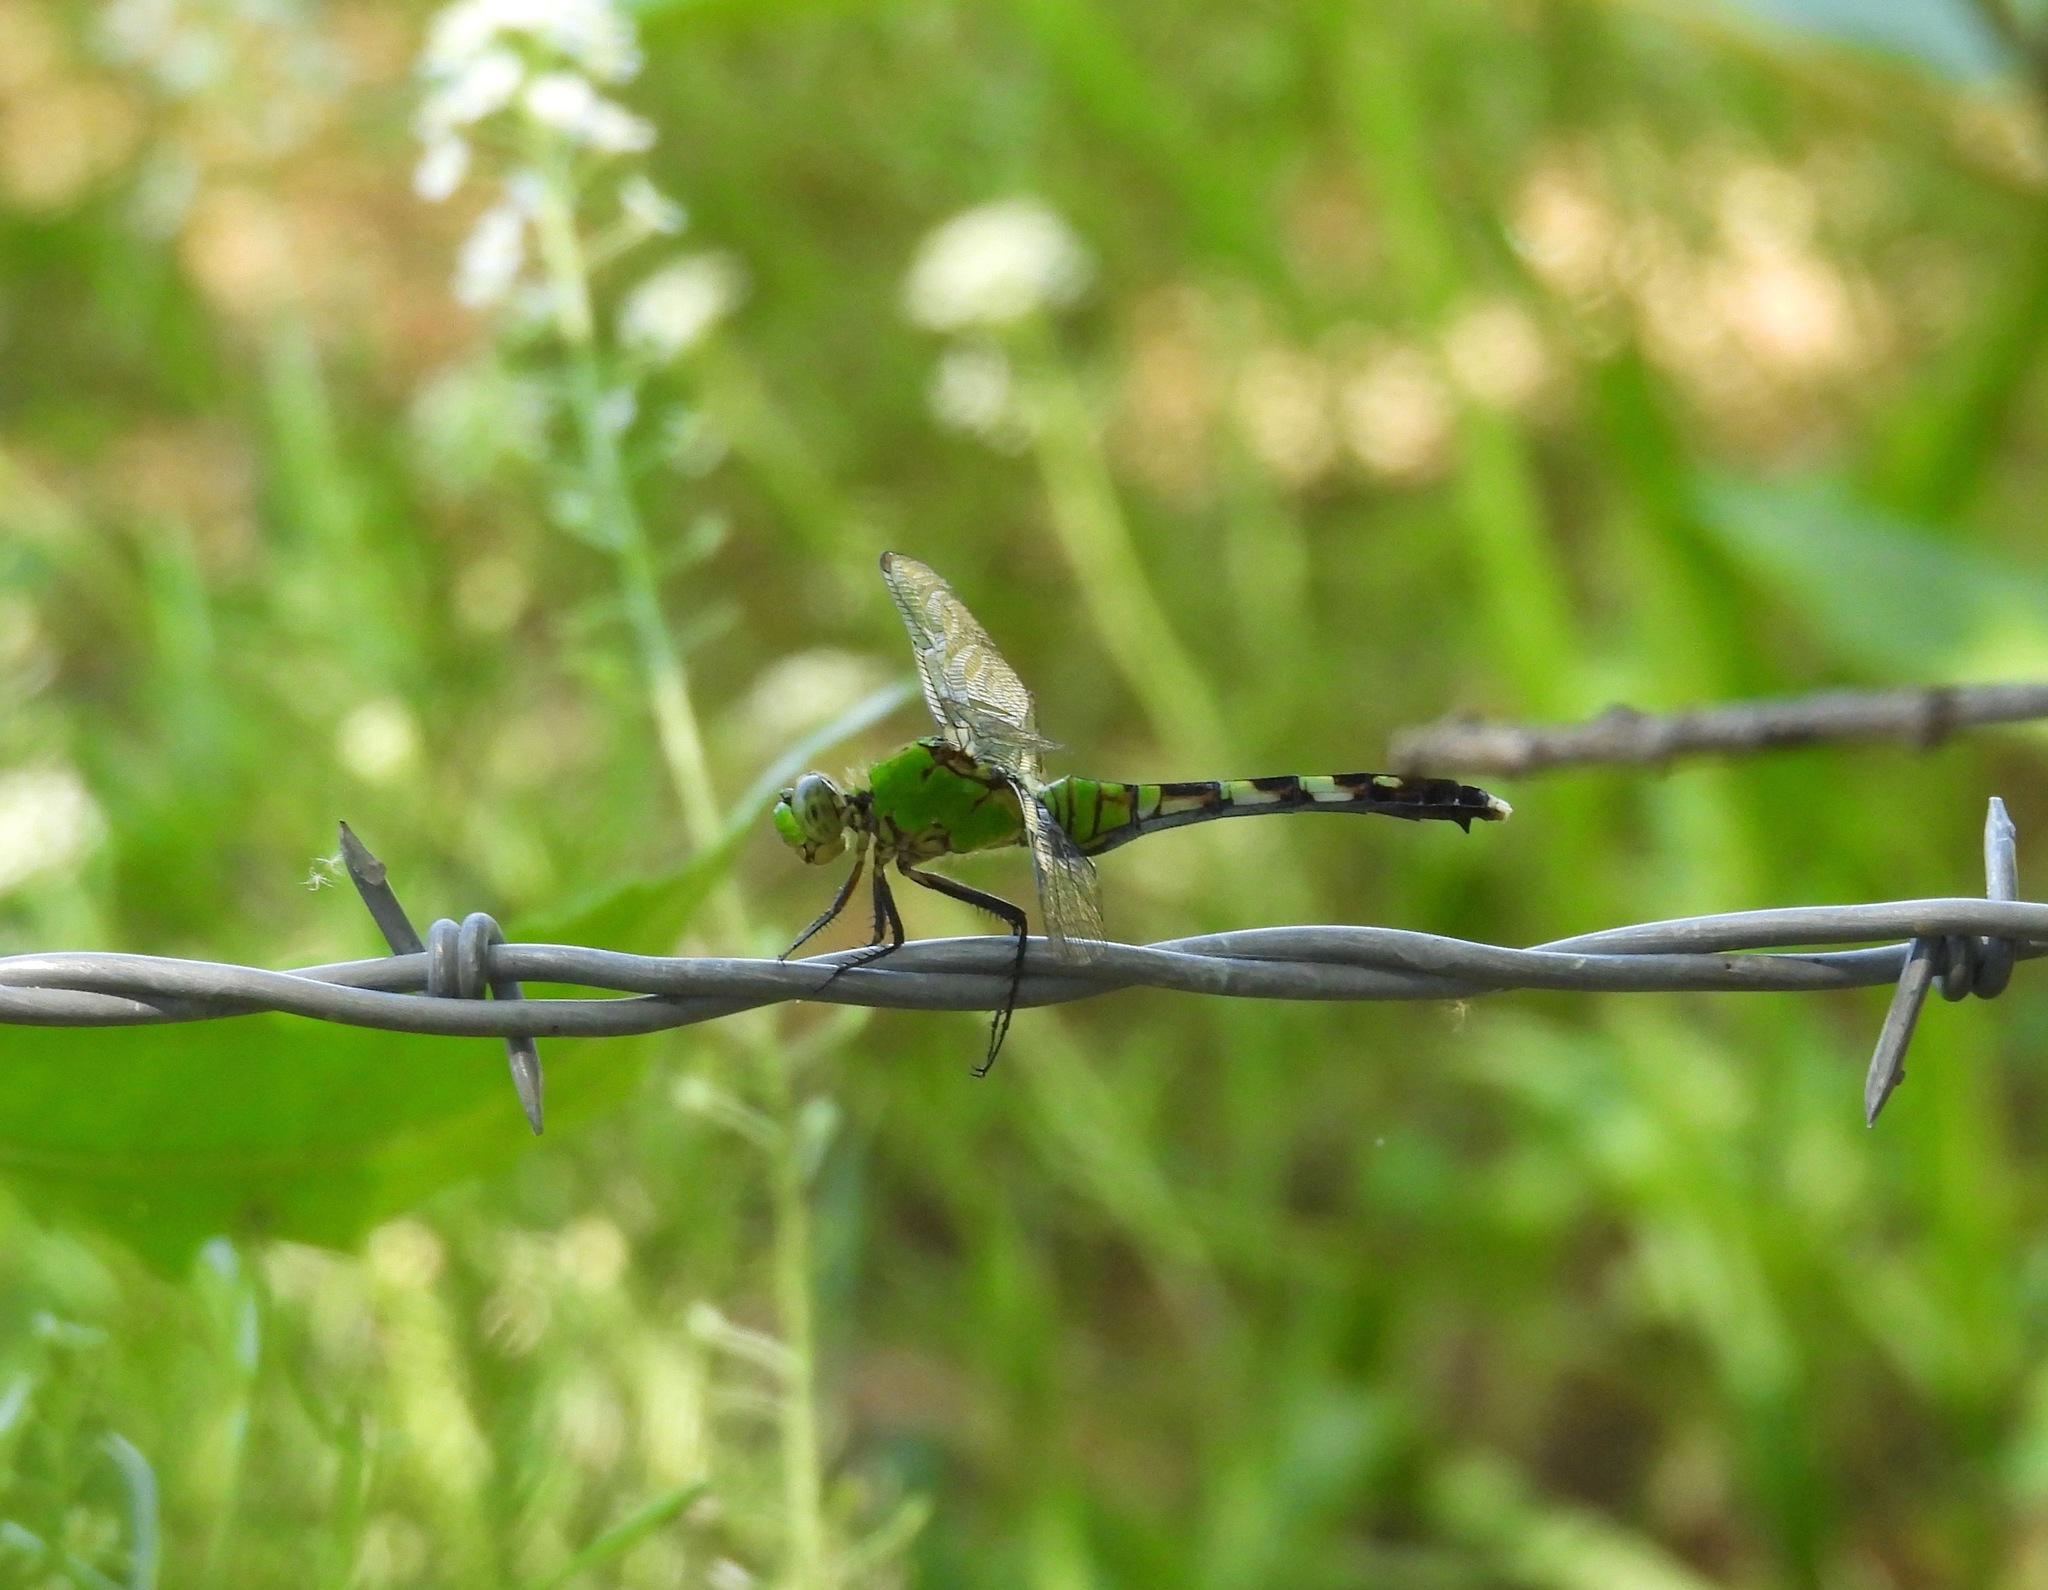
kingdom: Animalia
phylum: Arthropoda
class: Insecta
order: Odonata
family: Libellulidae
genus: Erythemis
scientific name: Erythemis simplicicollis
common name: Eastern pondhawk
